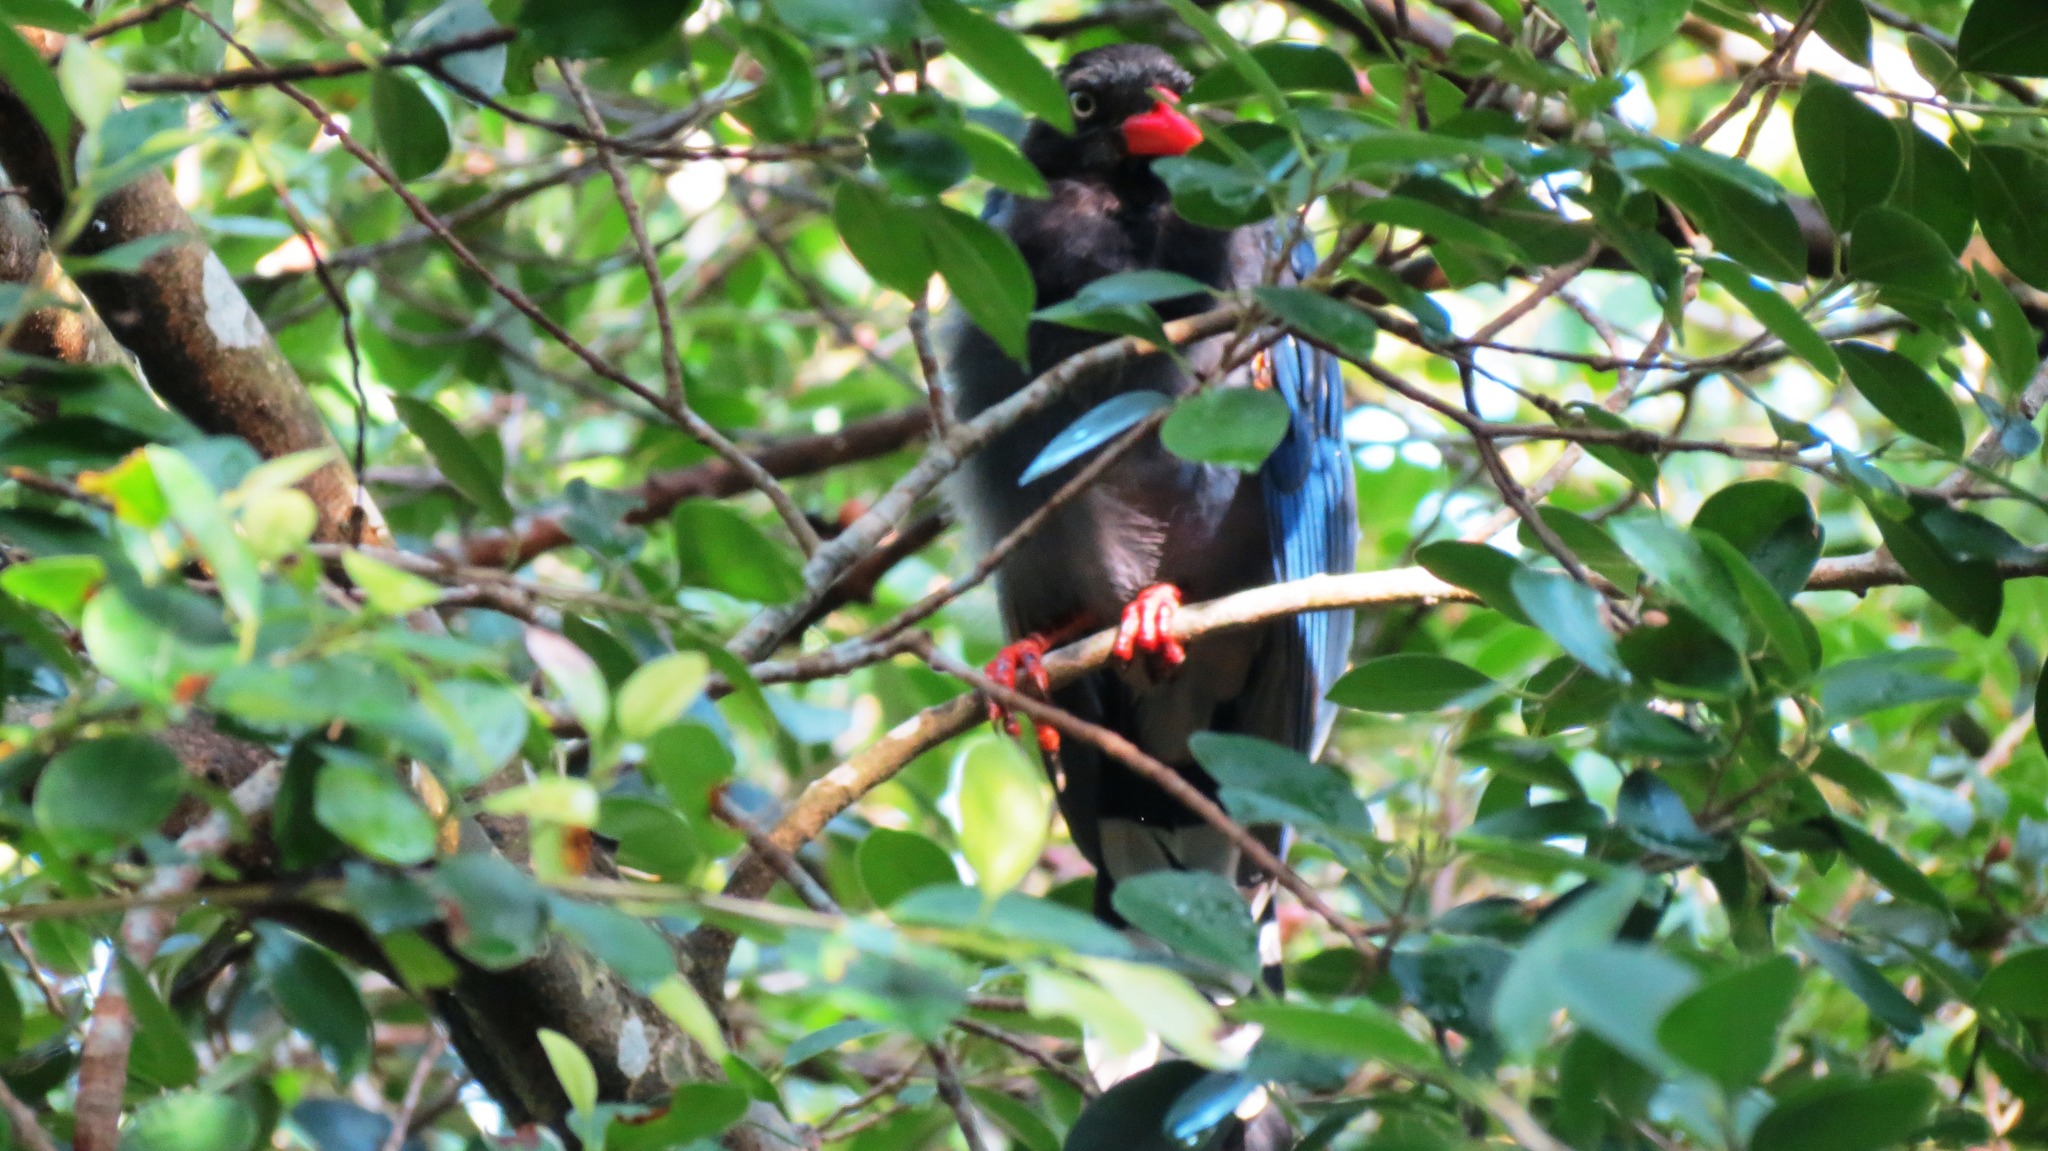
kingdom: Animalia
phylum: Chordata
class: Aves
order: Passeriformes
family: Corvidae
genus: Urocissa
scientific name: Urocissa caerulea
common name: Taiwan blue magpie
